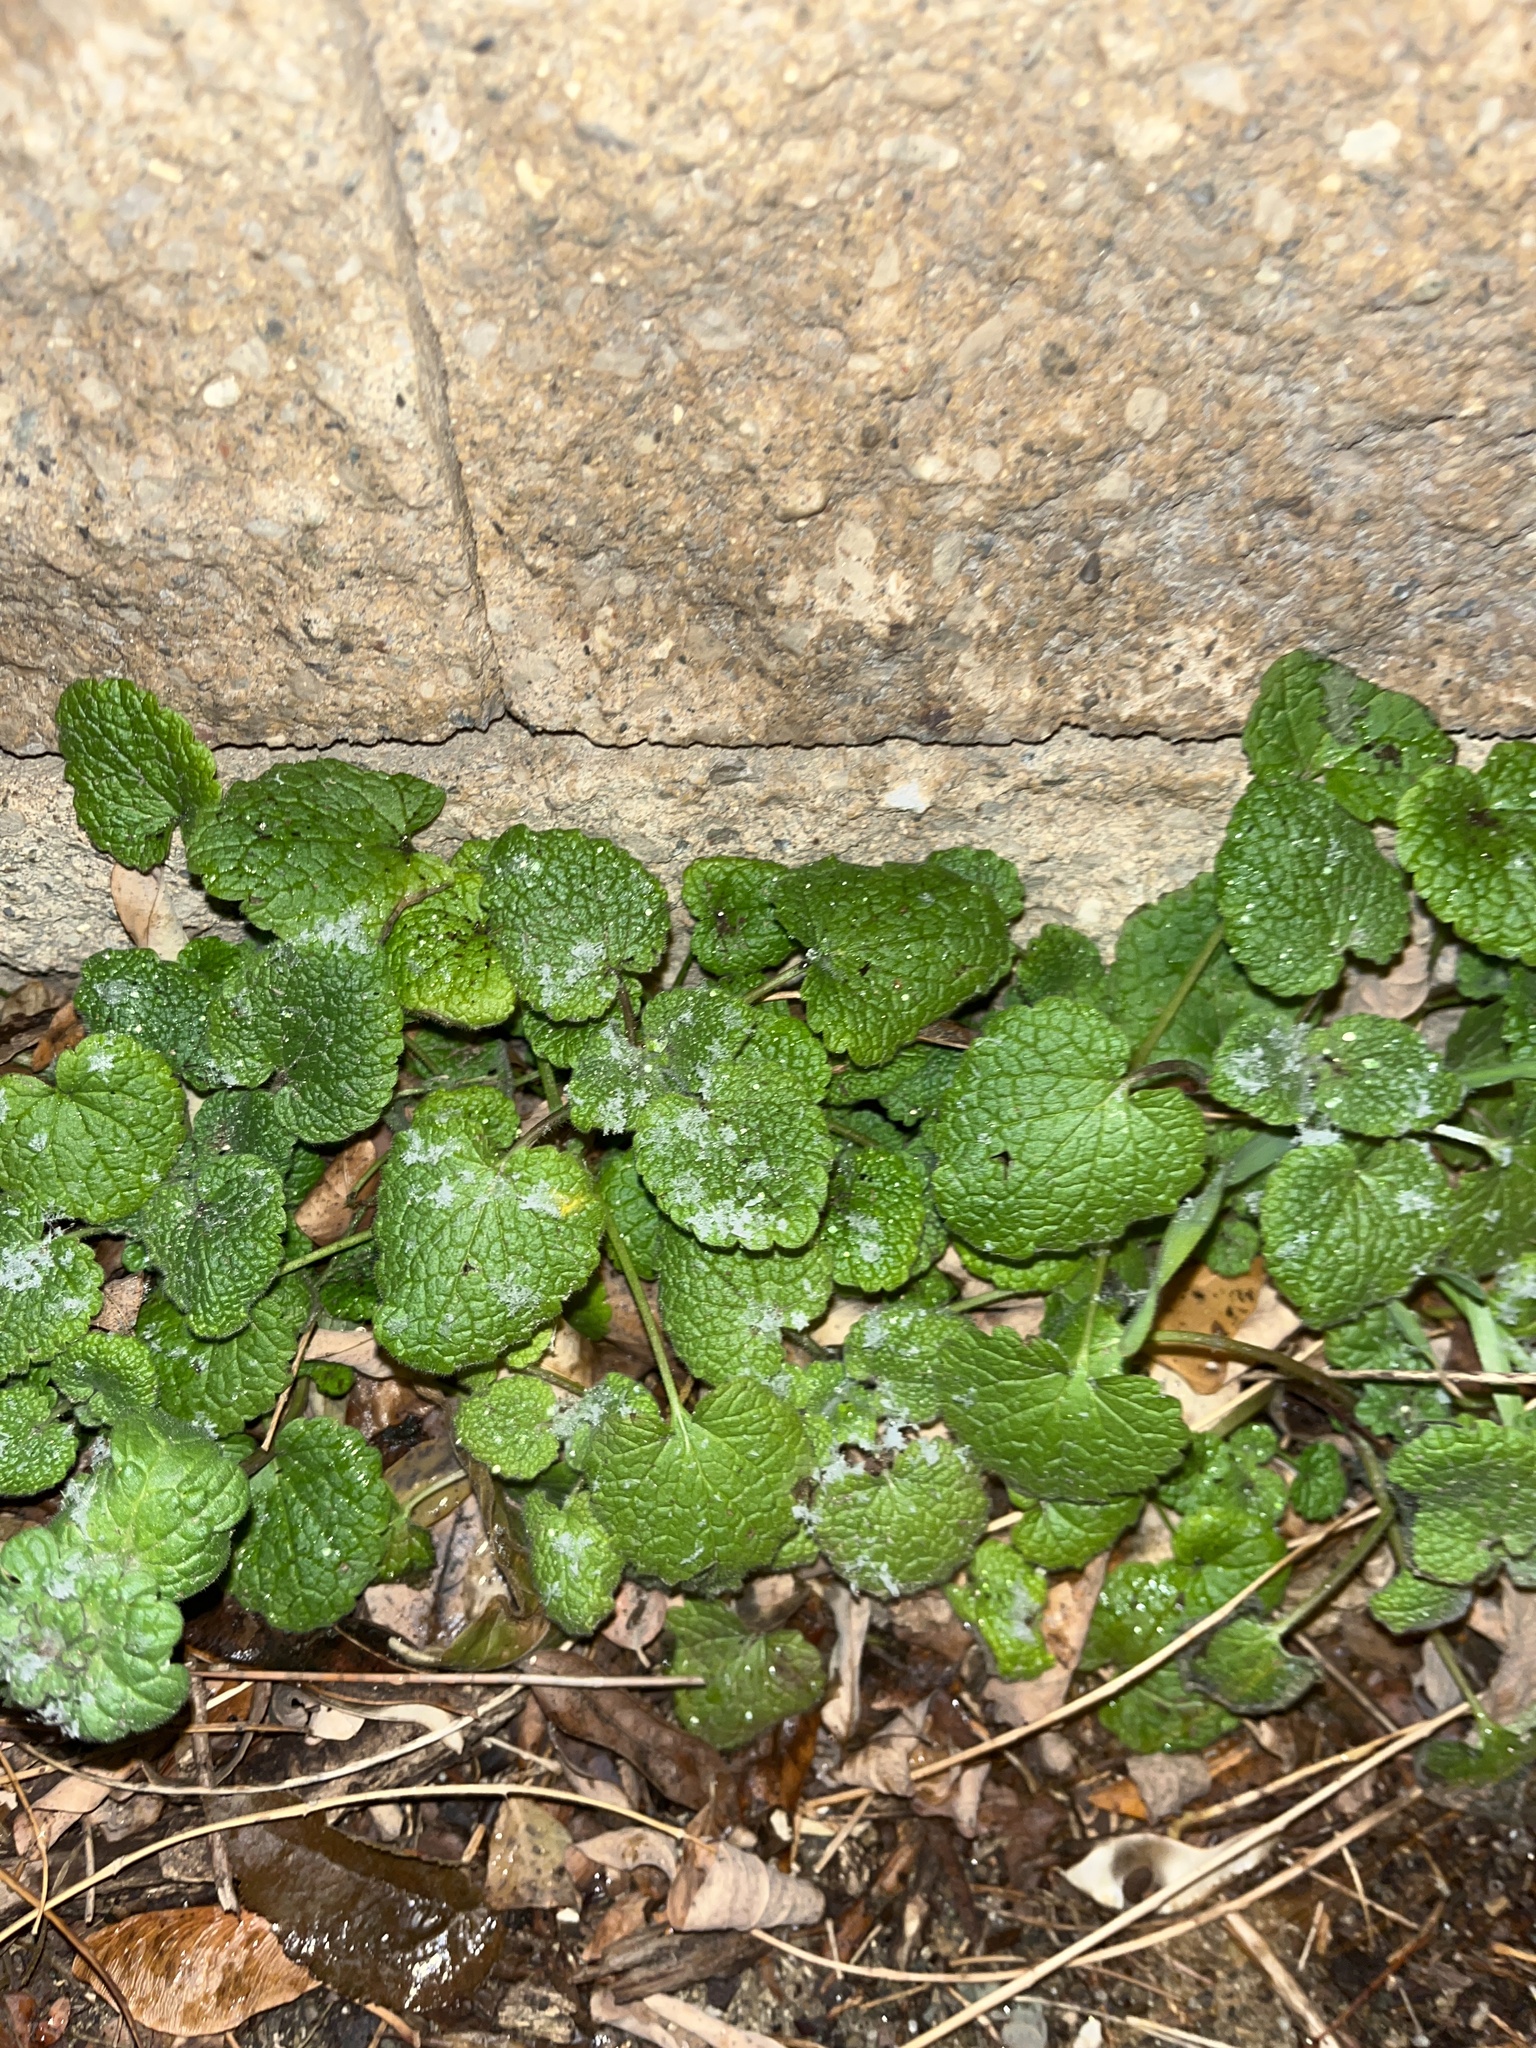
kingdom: Plantae
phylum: Tracheophyta
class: Magnoliopsida
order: Lamiales
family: Lamiaceae
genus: Lamium
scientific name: Lamium purpureum
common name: Red dead-nettle
